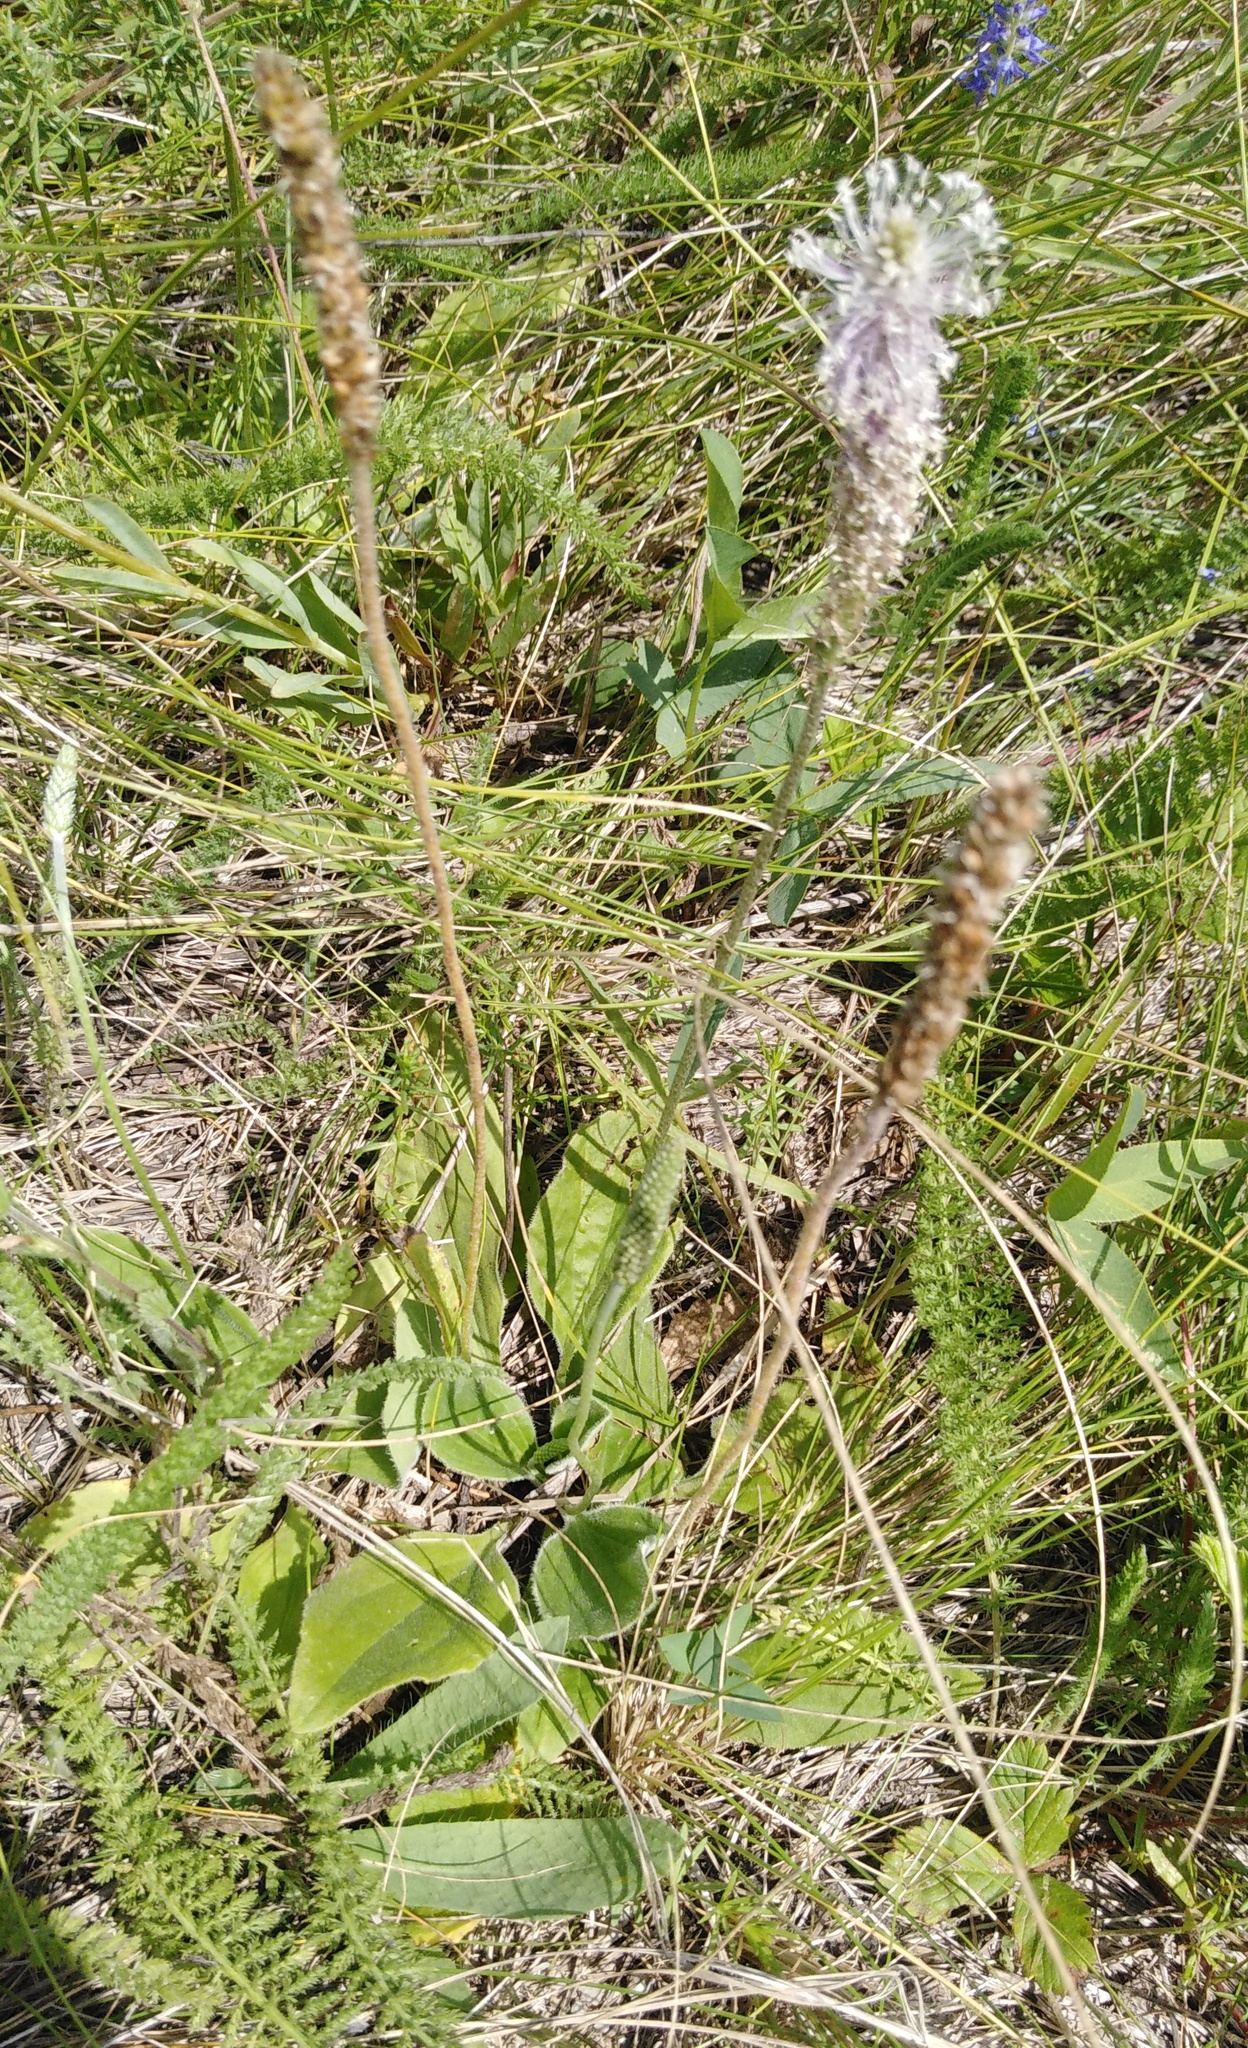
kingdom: Plantae
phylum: Tracheophyta
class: Magnoliopsida
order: Lamiales
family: Plantaginaceae
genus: Plantago
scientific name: Plantago media
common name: Hoary plantain
